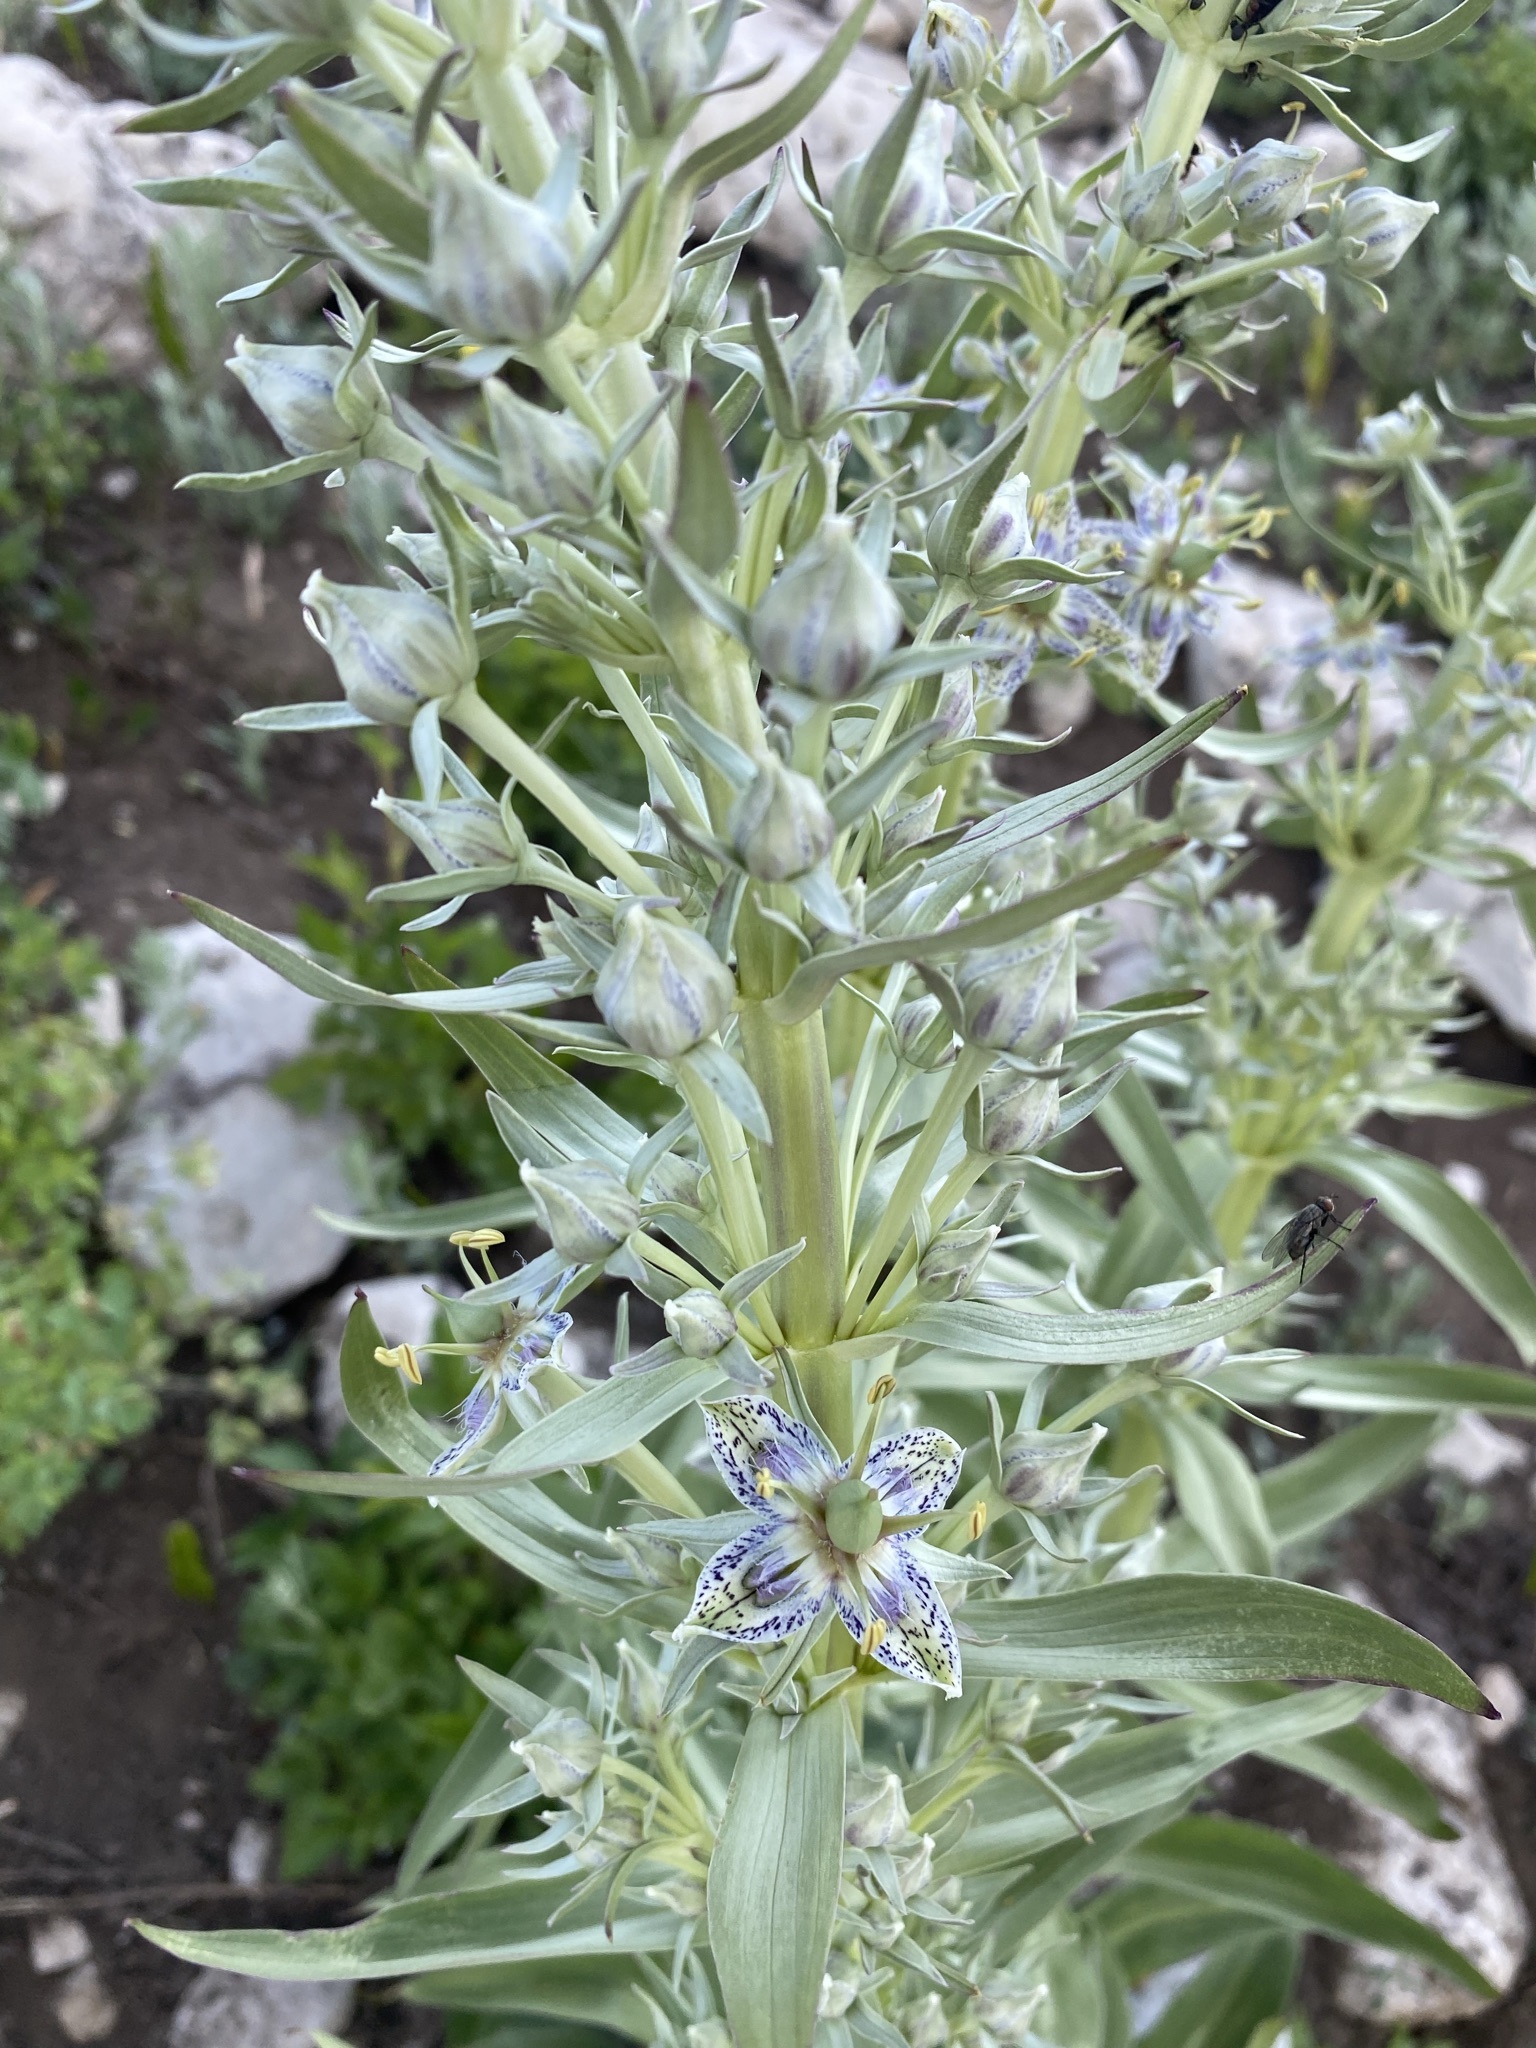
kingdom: Plantae
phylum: Tracheophyta
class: Magnoliopsida
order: Gentianales
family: Gentianaceae
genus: Frasera
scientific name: Frasera speciosa
